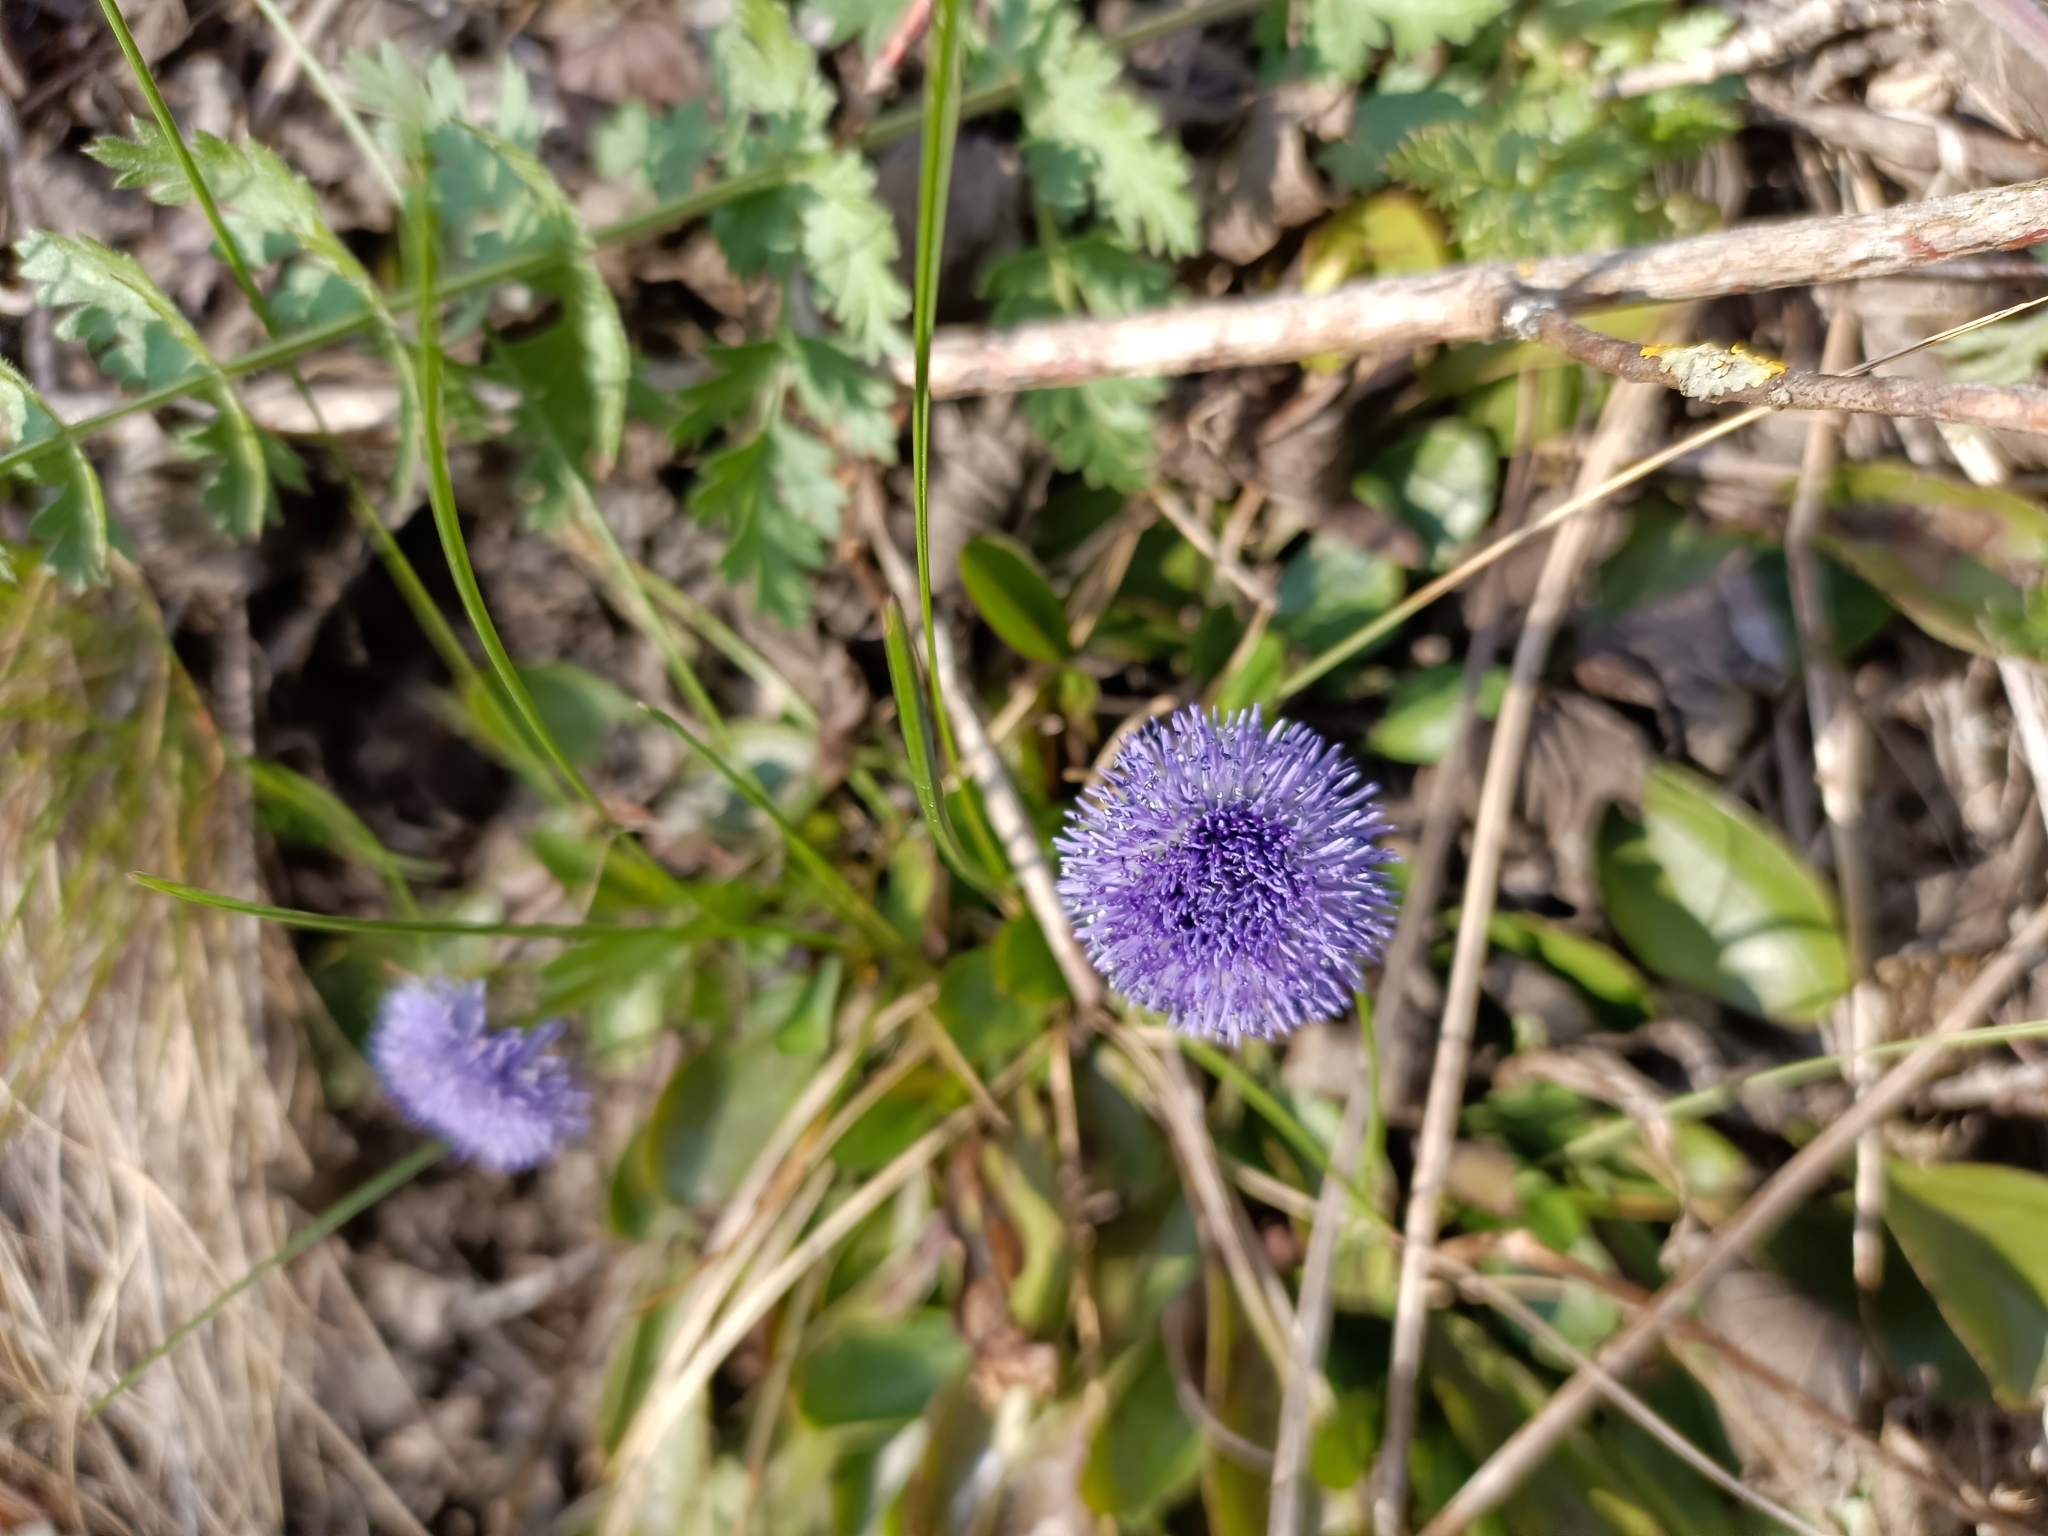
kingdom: Plantae
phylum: Tracheophyta
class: Magnoliopsida
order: Lamiales
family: Plantaginaceae
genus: Globularia
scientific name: Globularia bisnagarica
